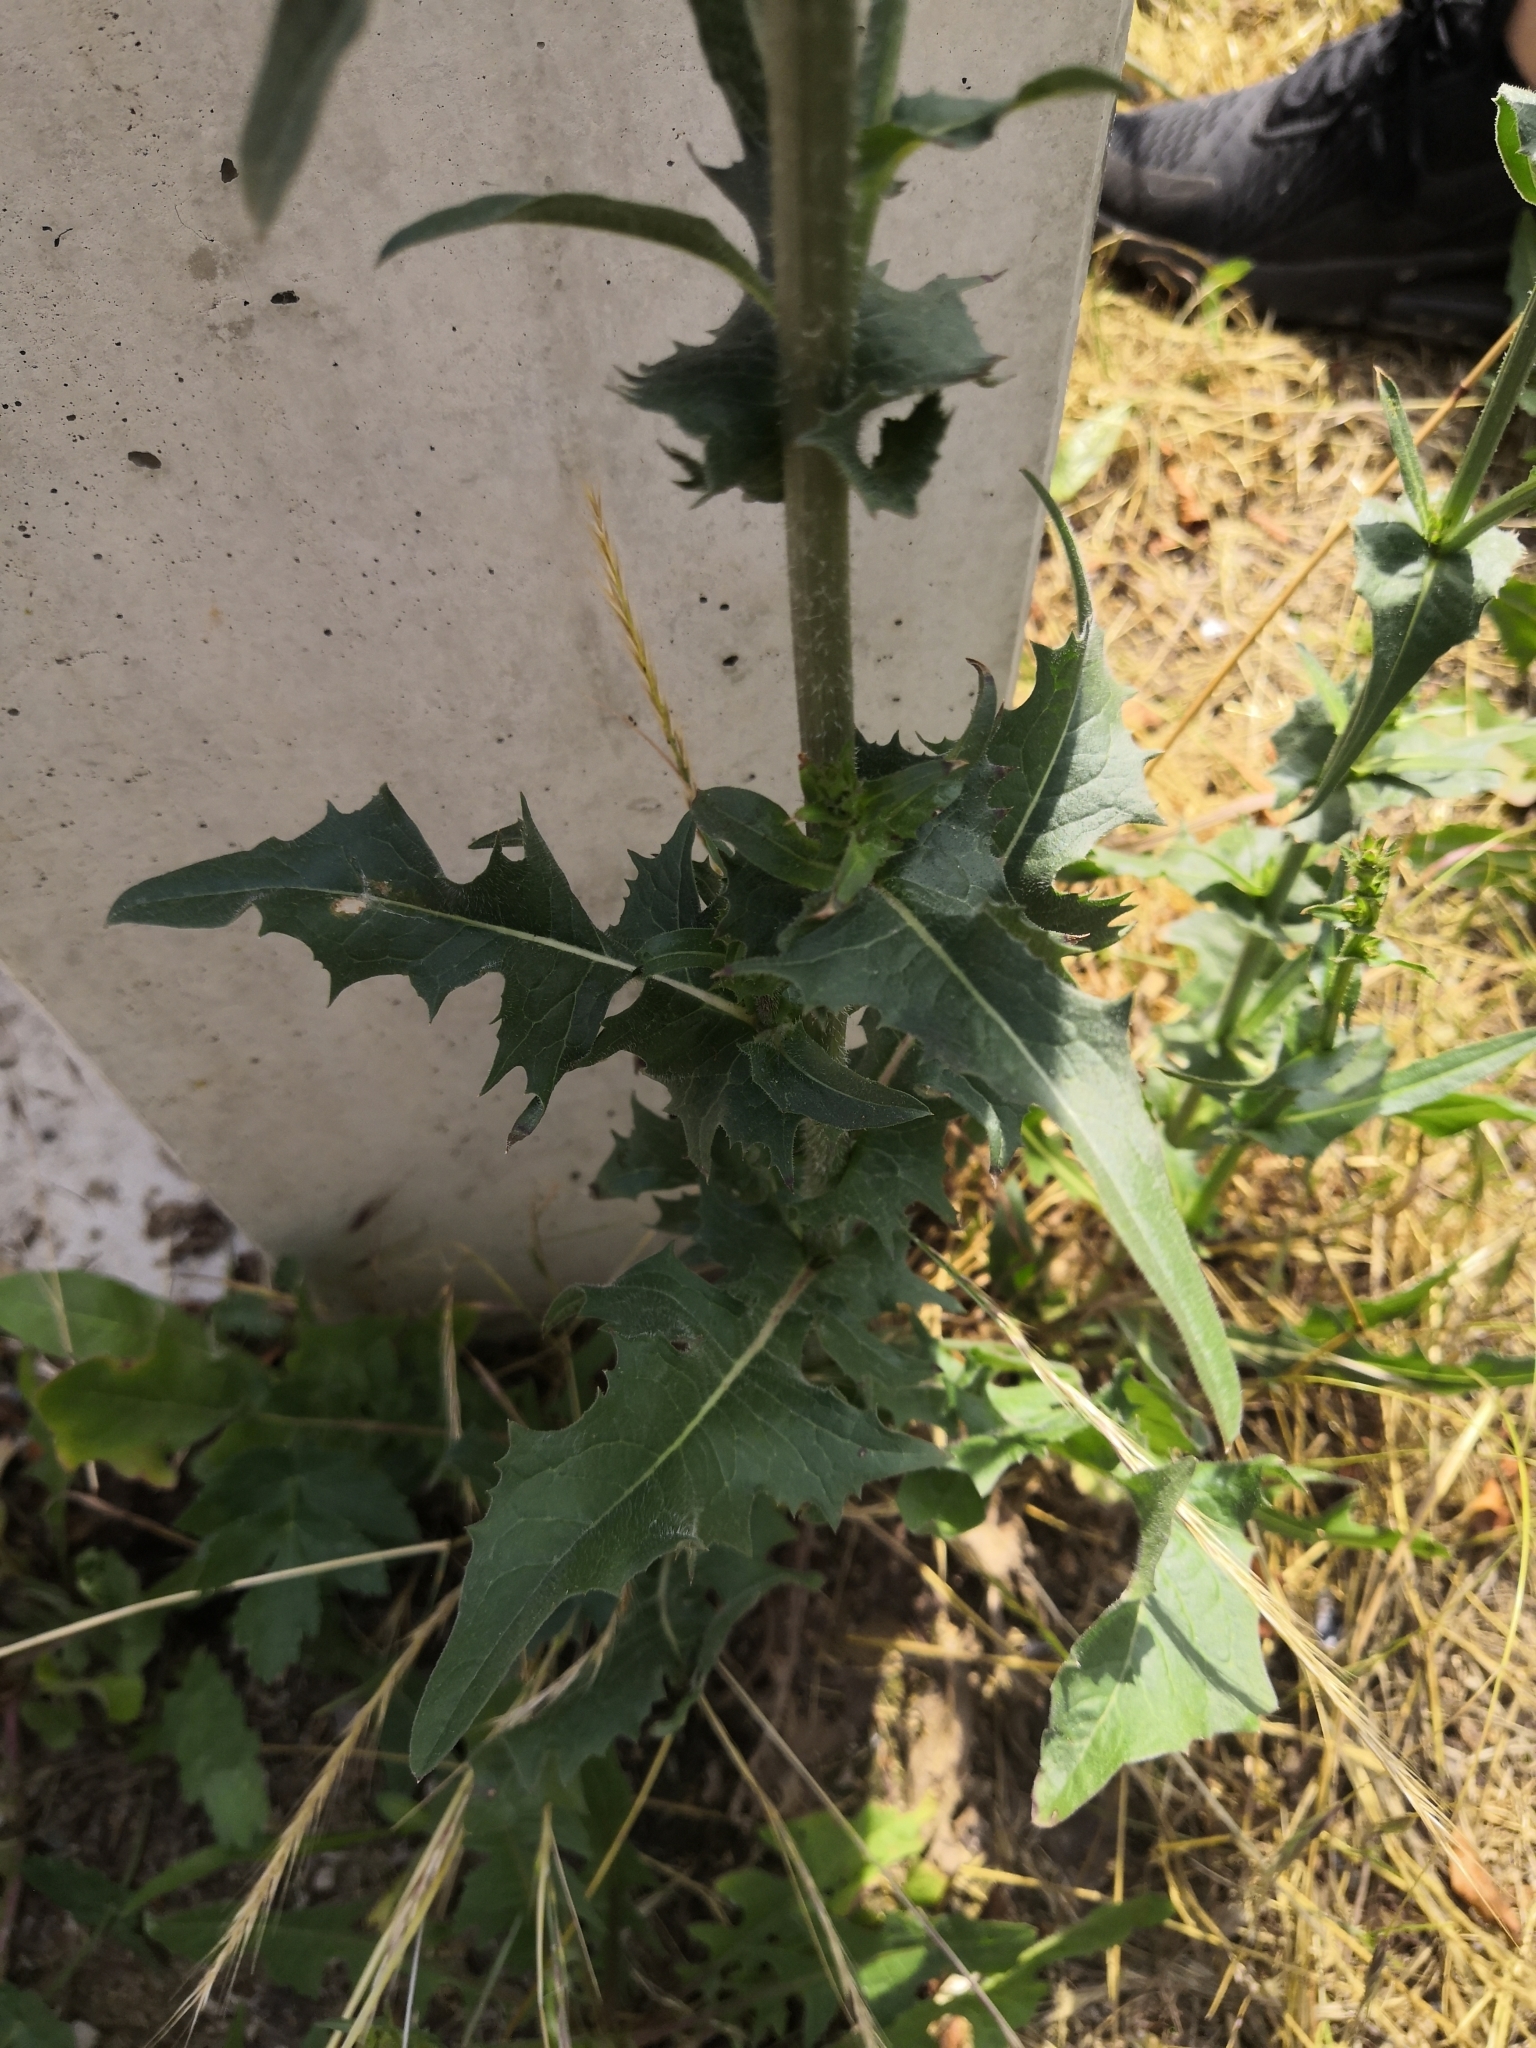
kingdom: Plantae
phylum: Tracheophyta
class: Magnoliopsida
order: Asterales
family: Asteraceae
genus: Cichorium
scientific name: Cichorium intybus
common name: Chicory
